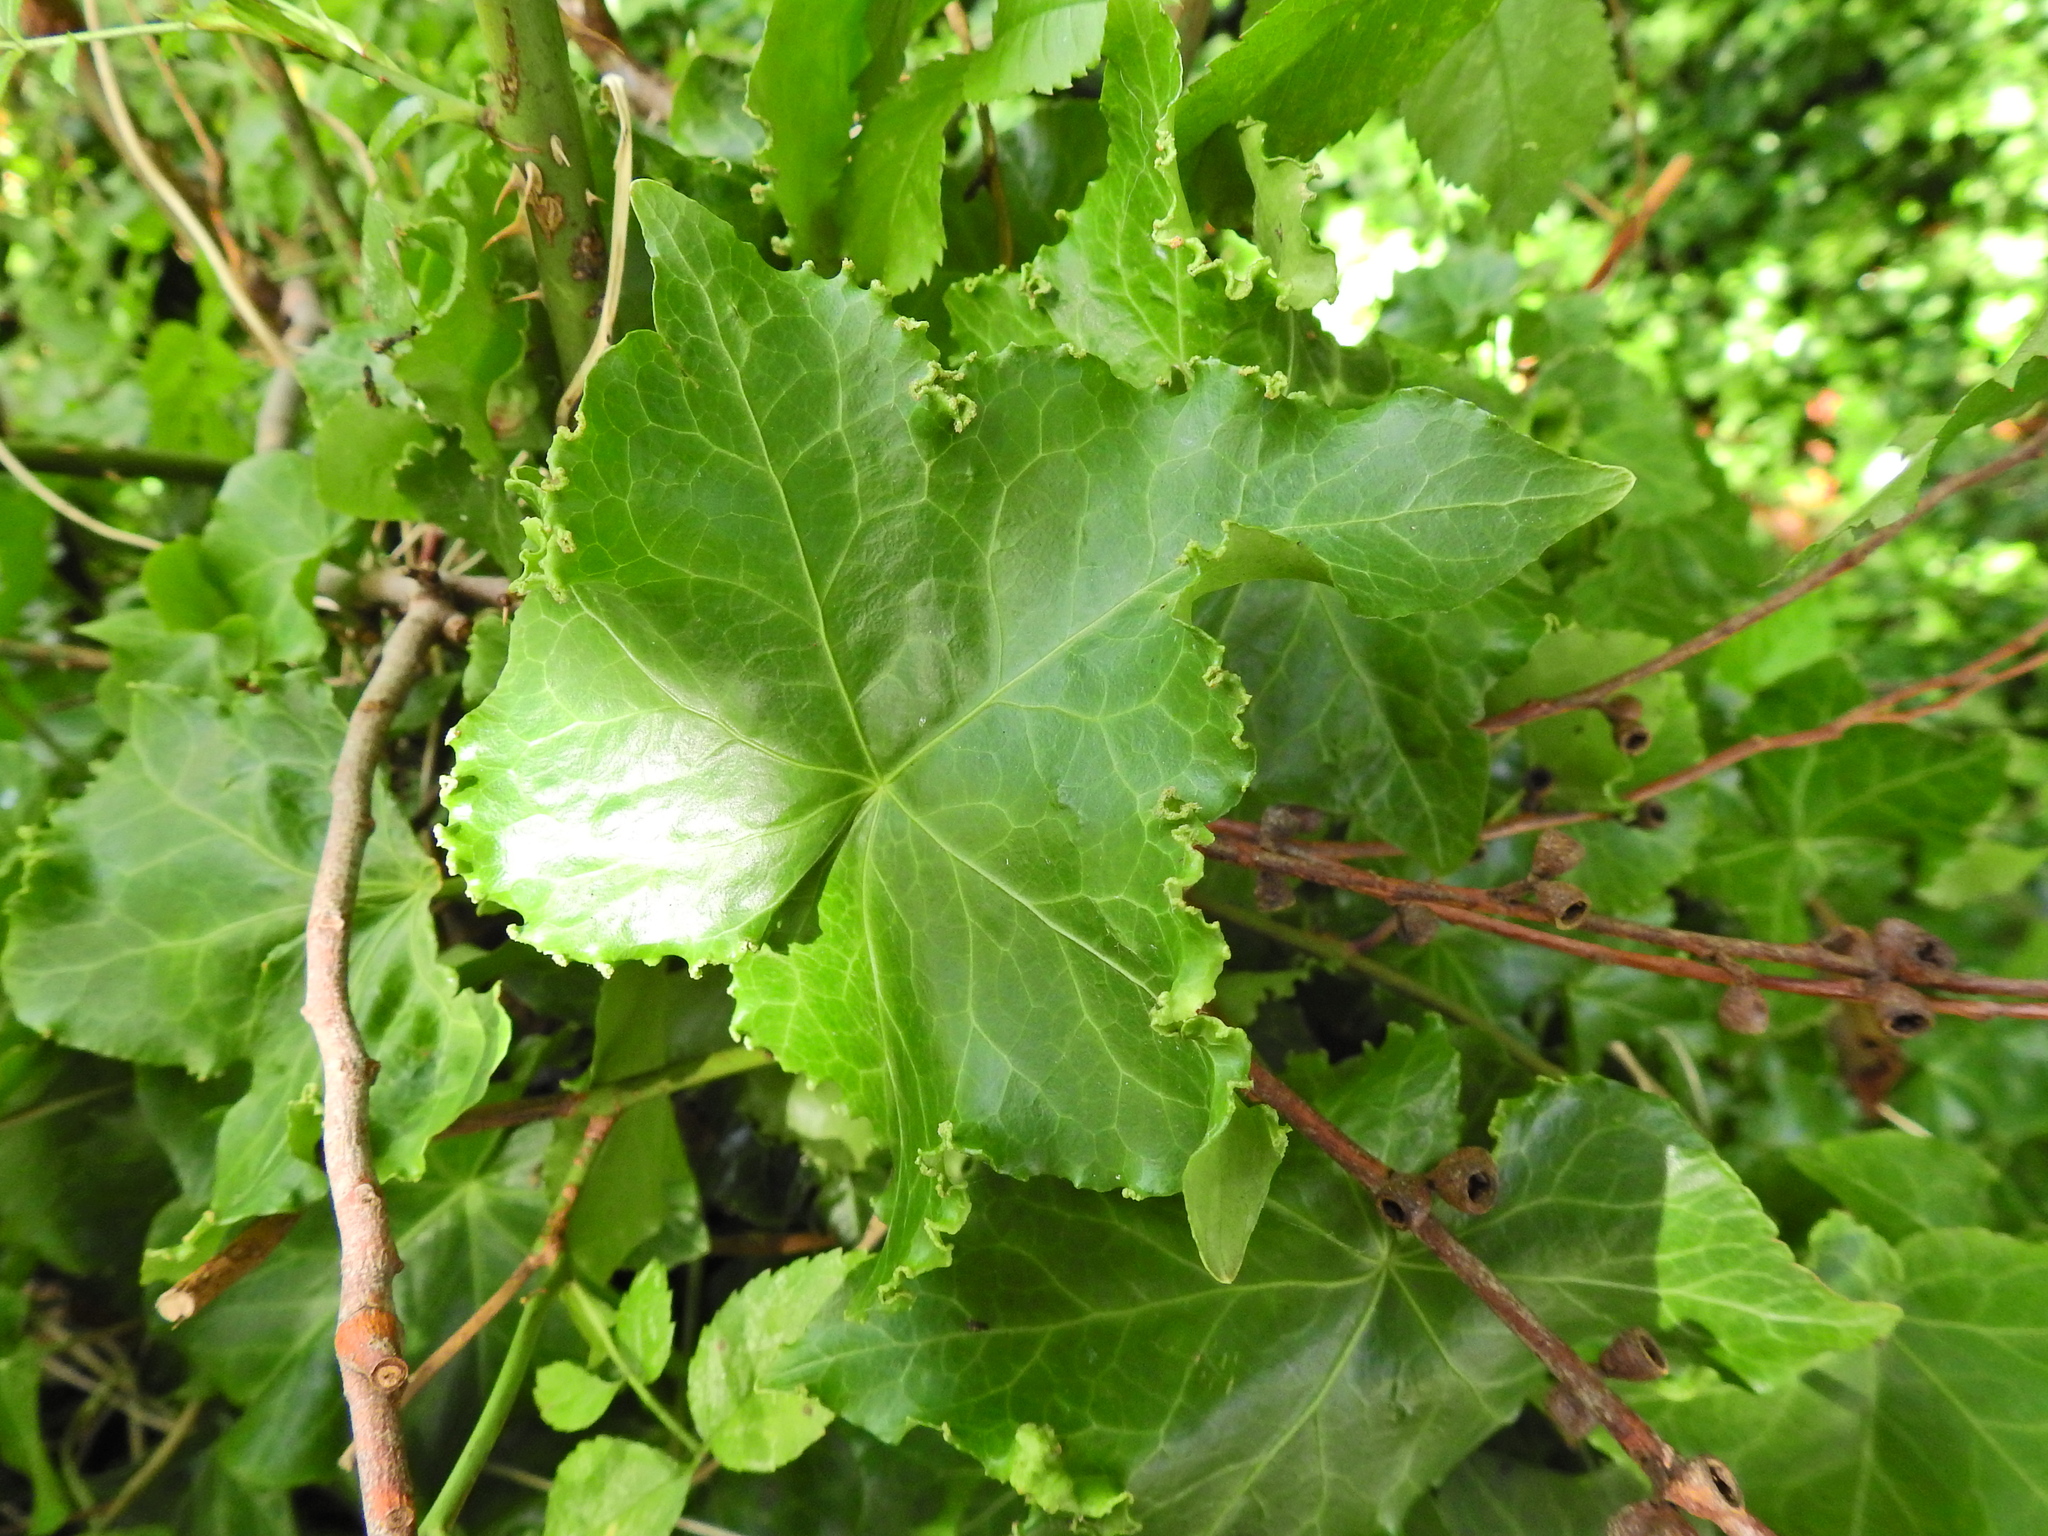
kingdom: Plantae
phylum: Tracheophyta
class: Magnoliopsida
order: Apiales
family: Araliaceae
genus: Hedera
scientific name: Hedera helix
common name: Ivy
